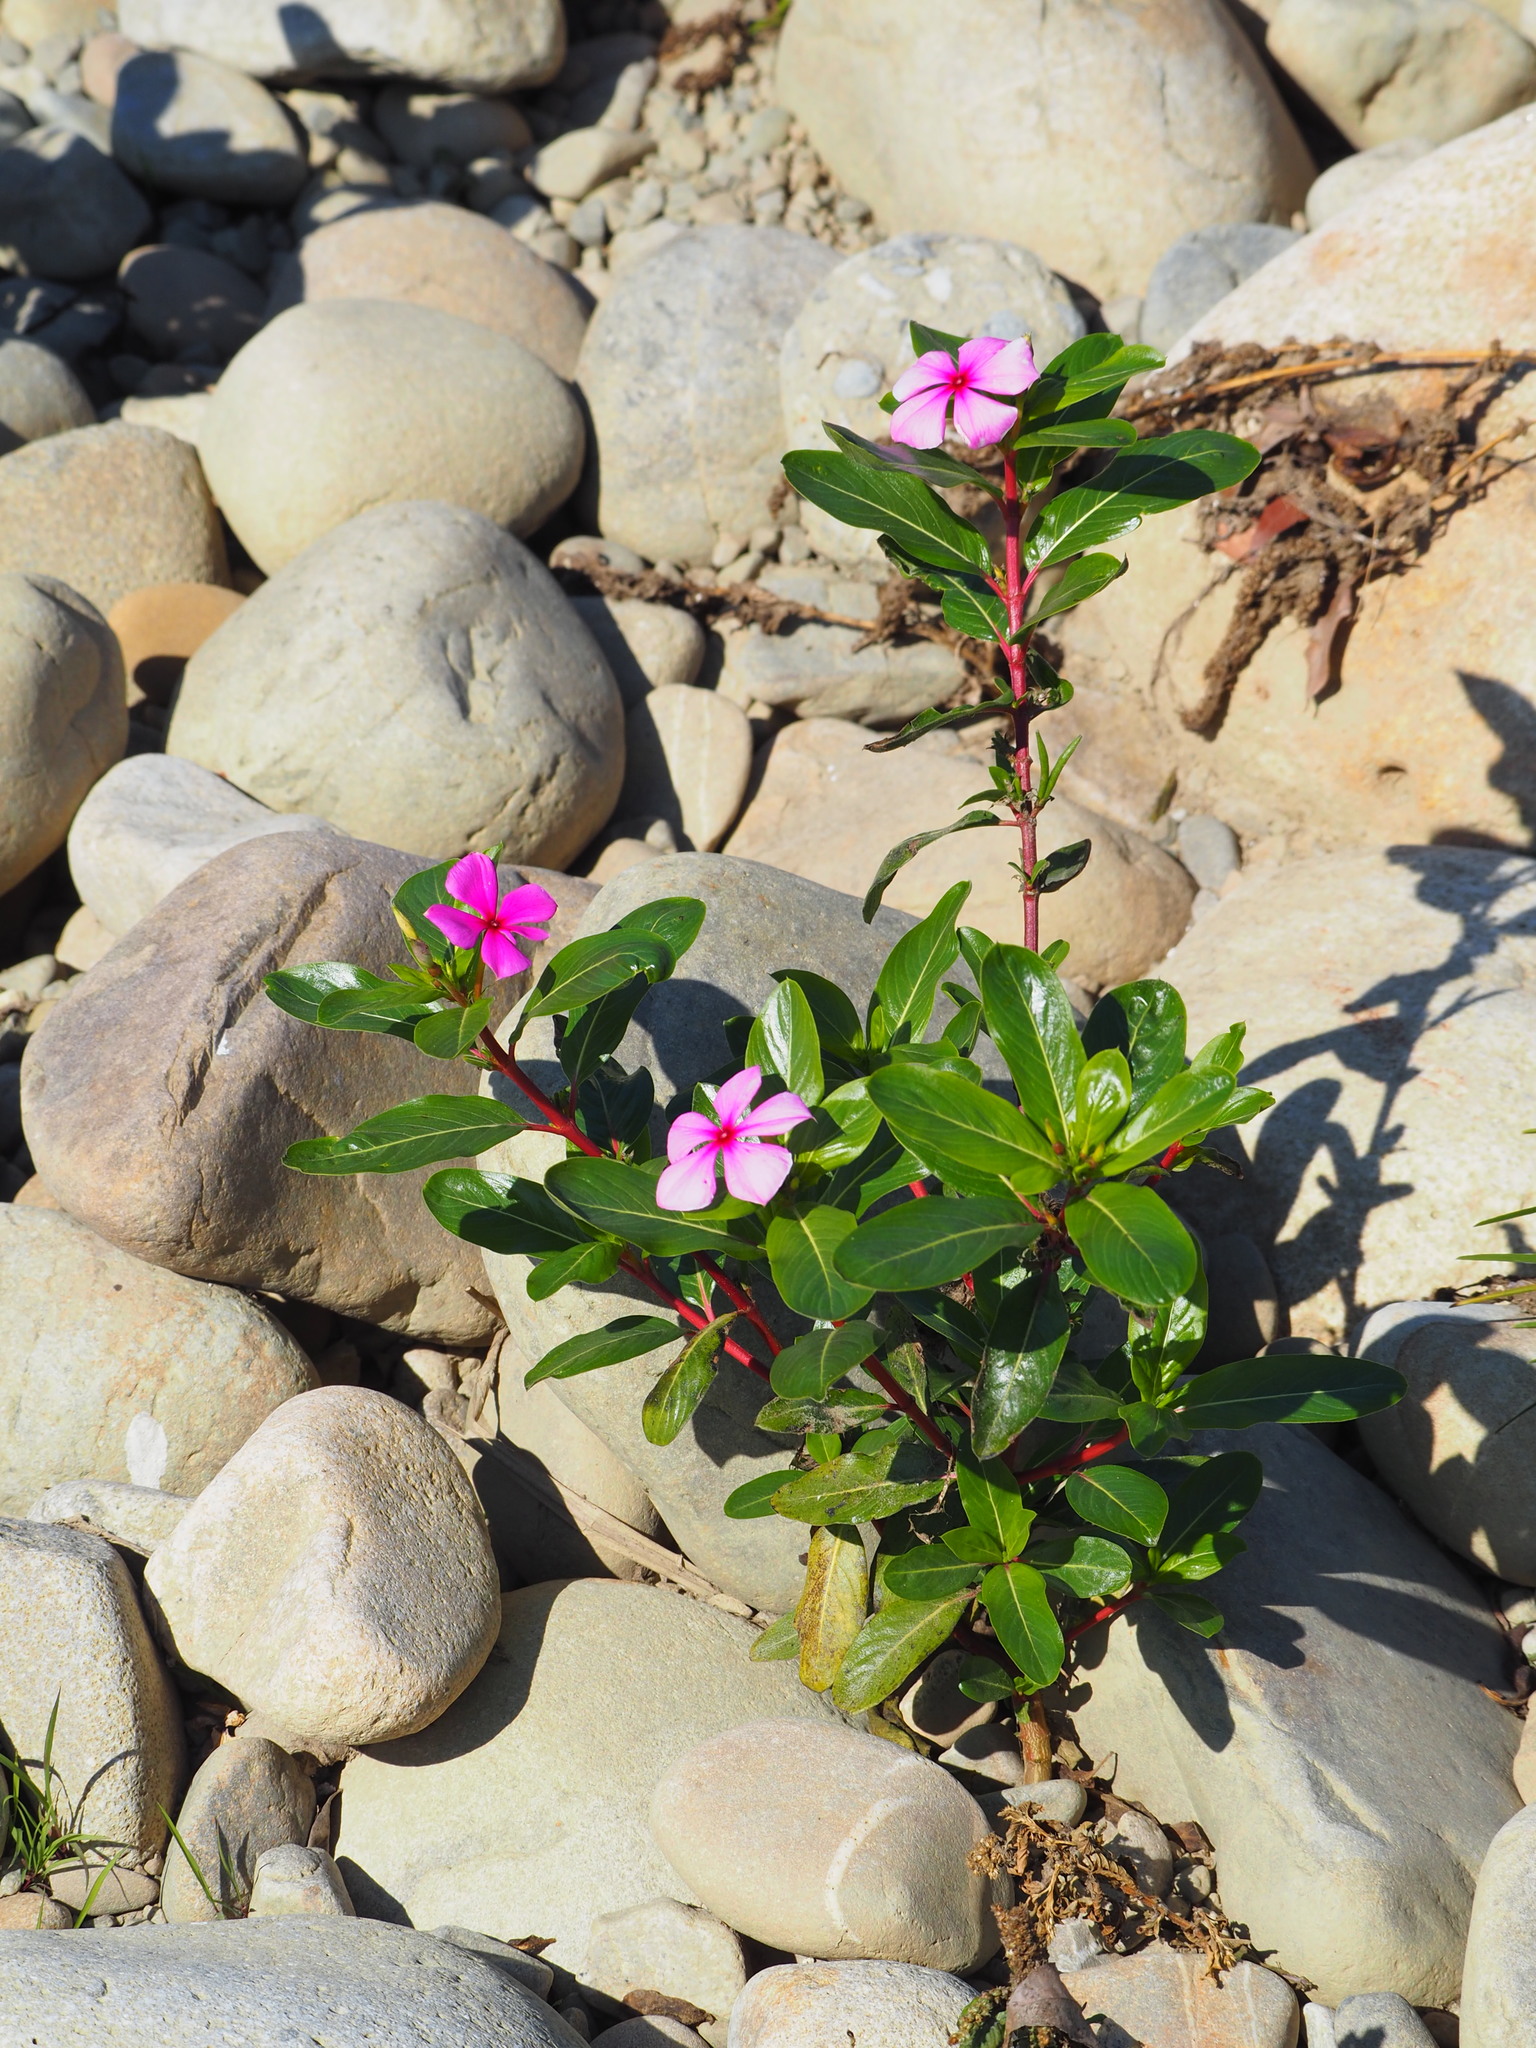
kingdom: Plantae
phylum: Tracheophyta
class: Magnoliopsida
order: Gentianales
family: Apocynaceae
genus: Catharanthus
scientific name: Catharanthus roseus
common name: Madagascar periwinkle
